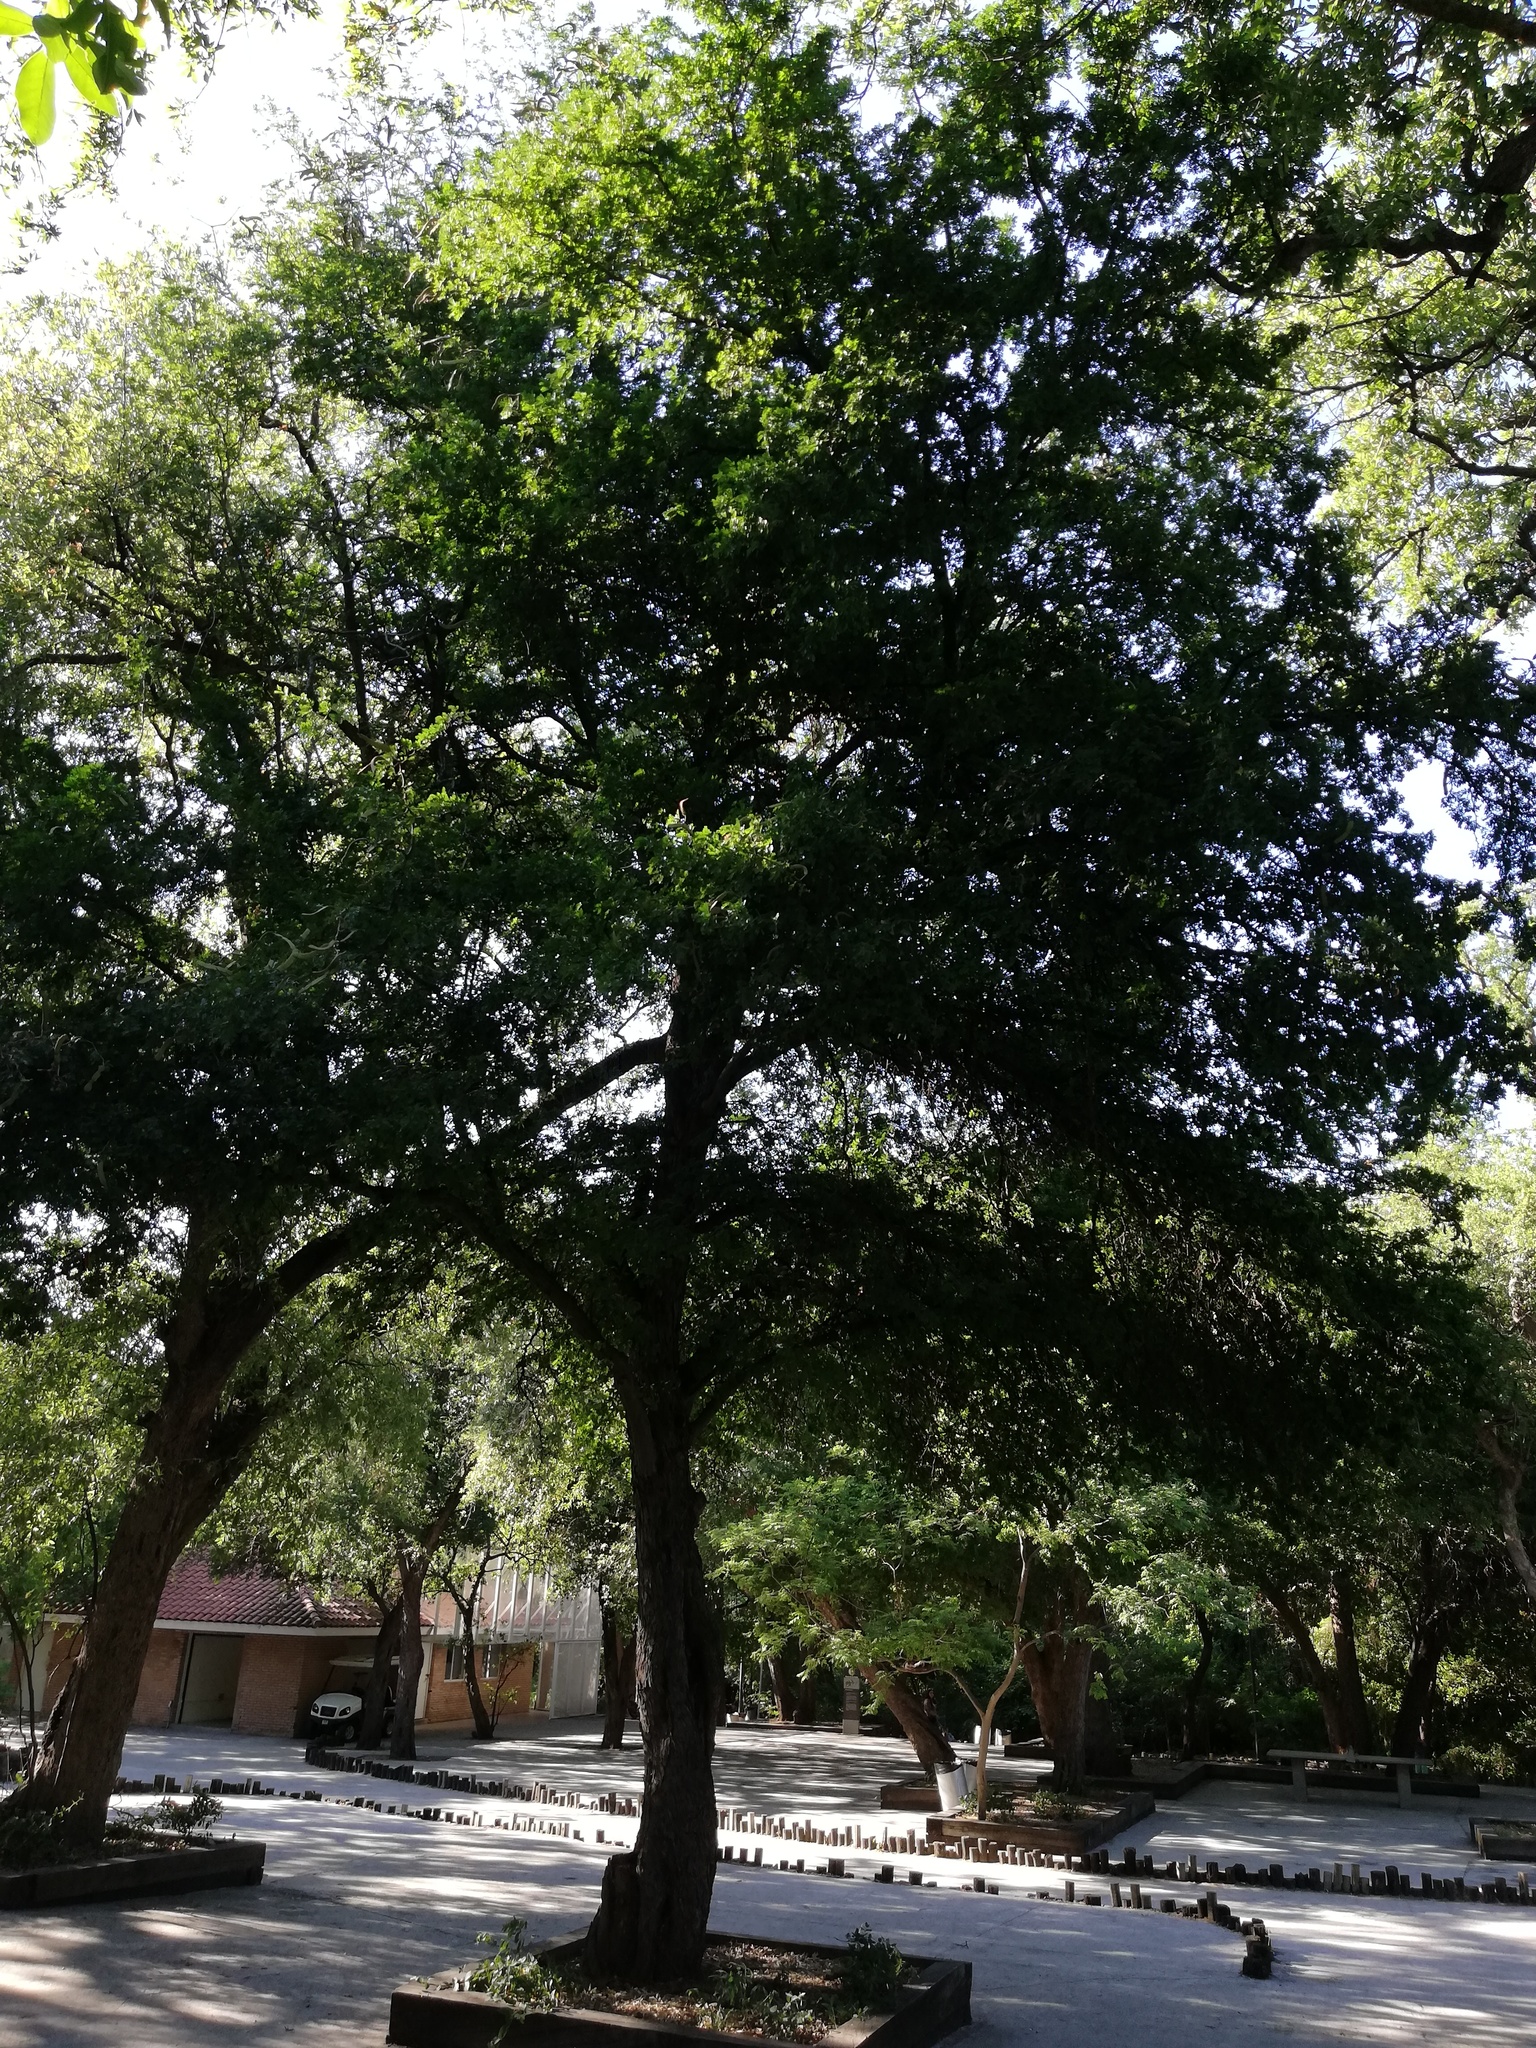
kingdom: Plantae
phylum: Tracheophyta
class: Magnoliopsida
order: Fabales
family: Fabaceae
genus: Ebenopsis
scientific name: Ebenopsis ebano
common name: Ebony blackbead
